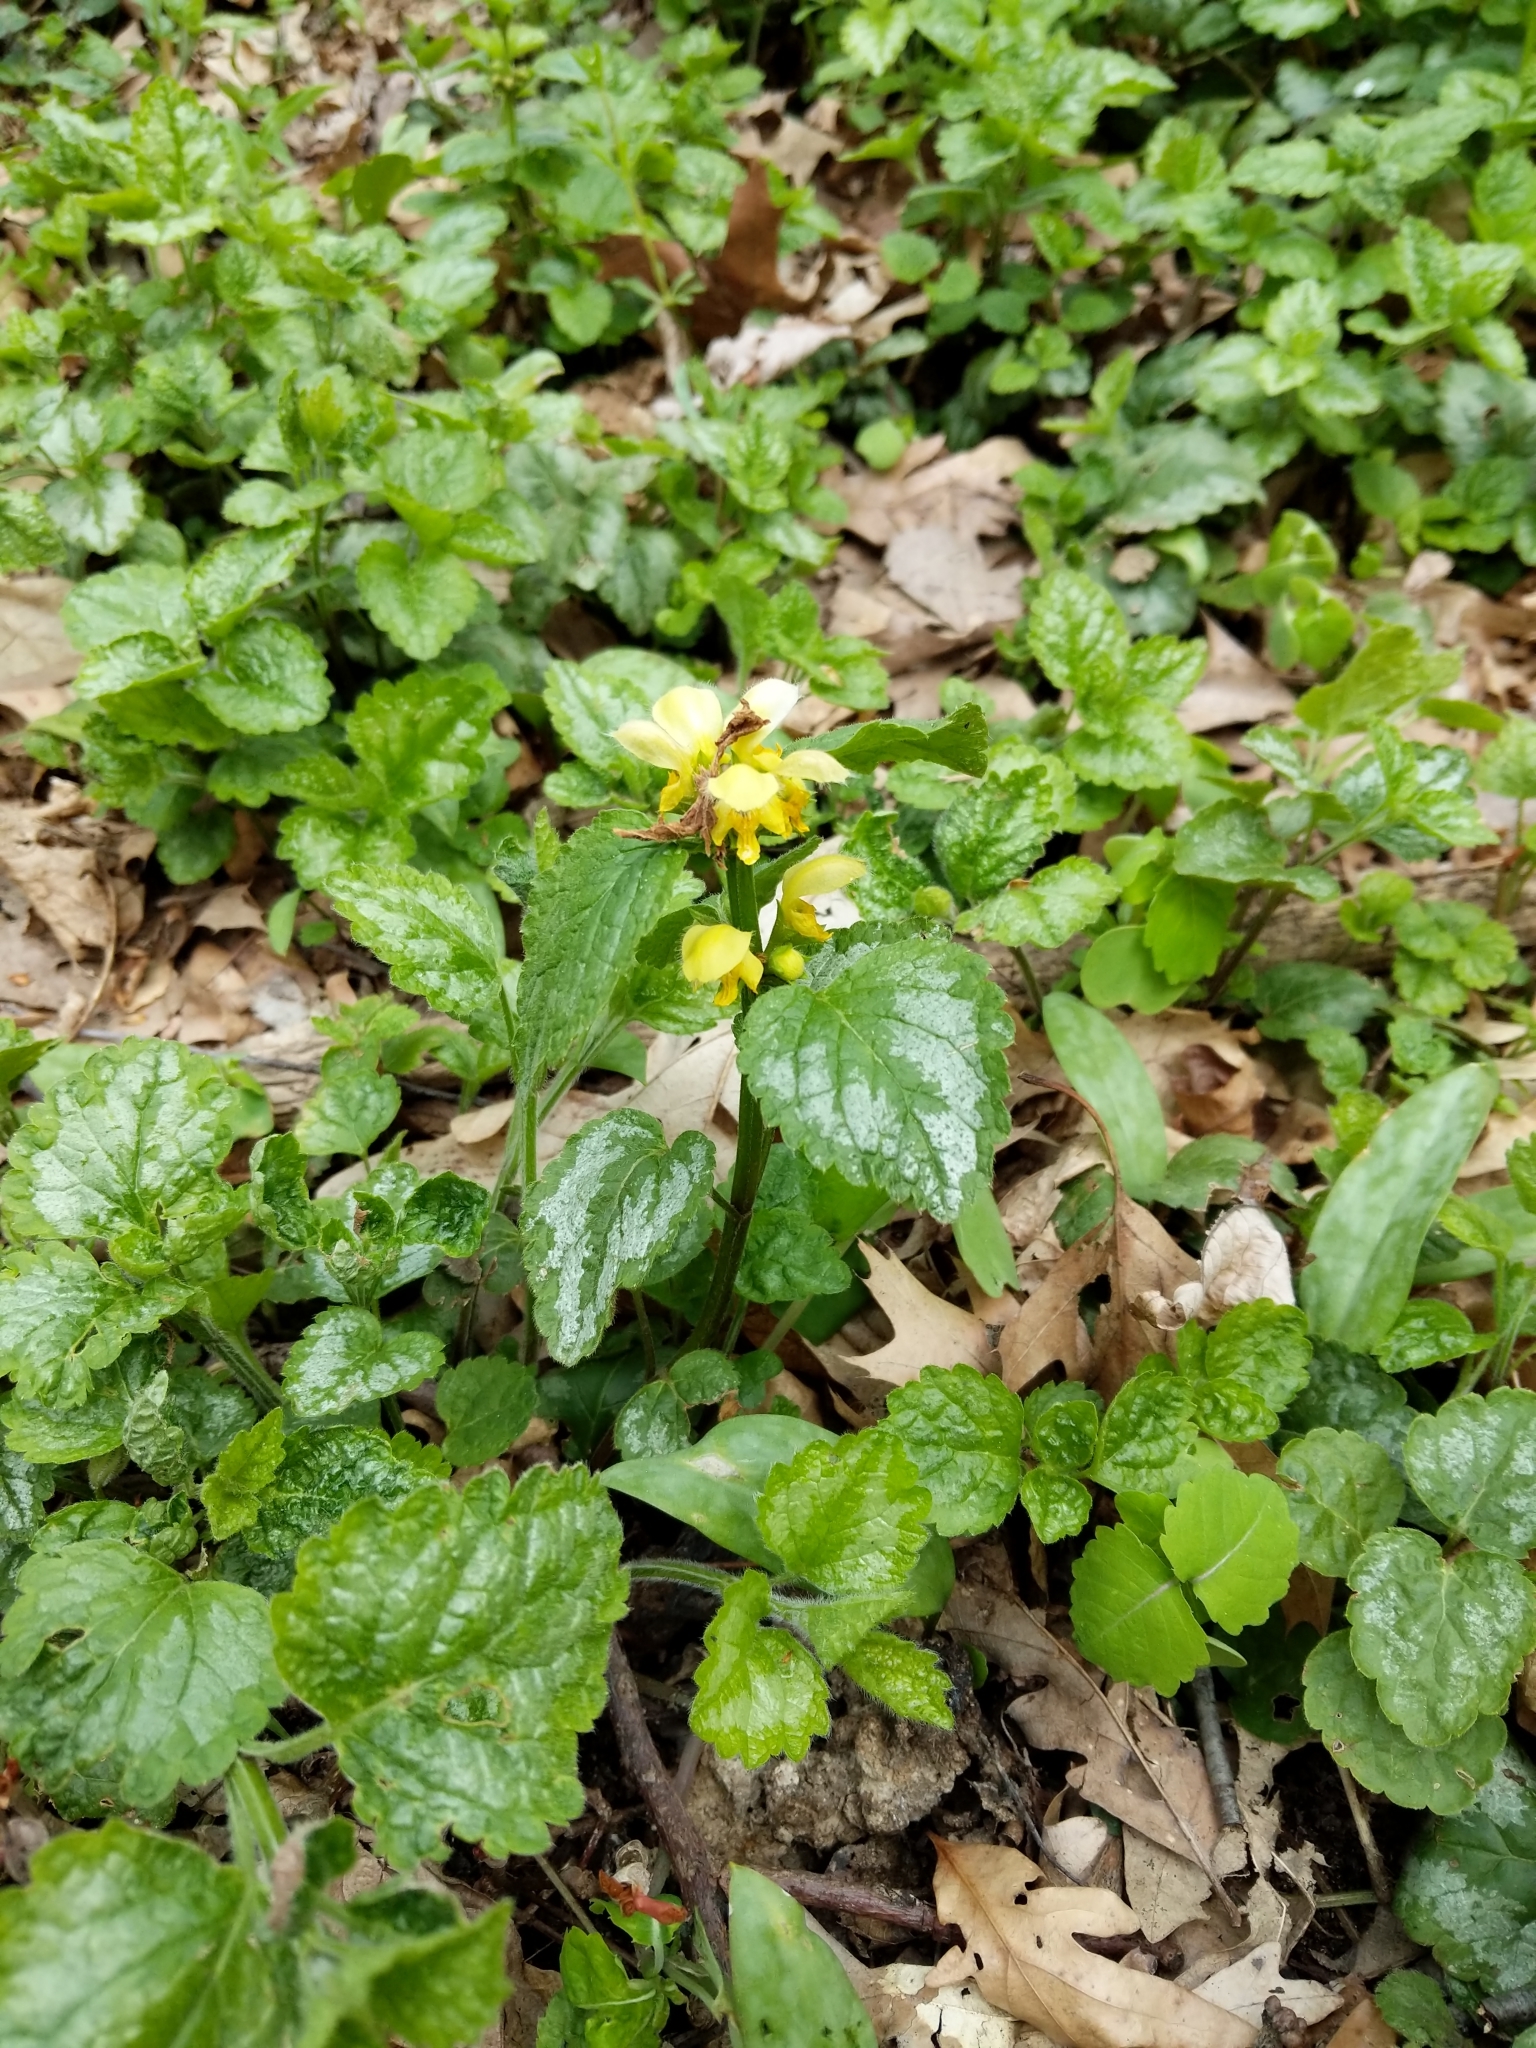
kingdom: Plantae
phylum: Tracheophyta
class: Magnoliopsida
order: Lamiales
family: Lamiaceae
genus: Lamium
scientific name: Lamium galeobdolon
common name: Yellow archangel
